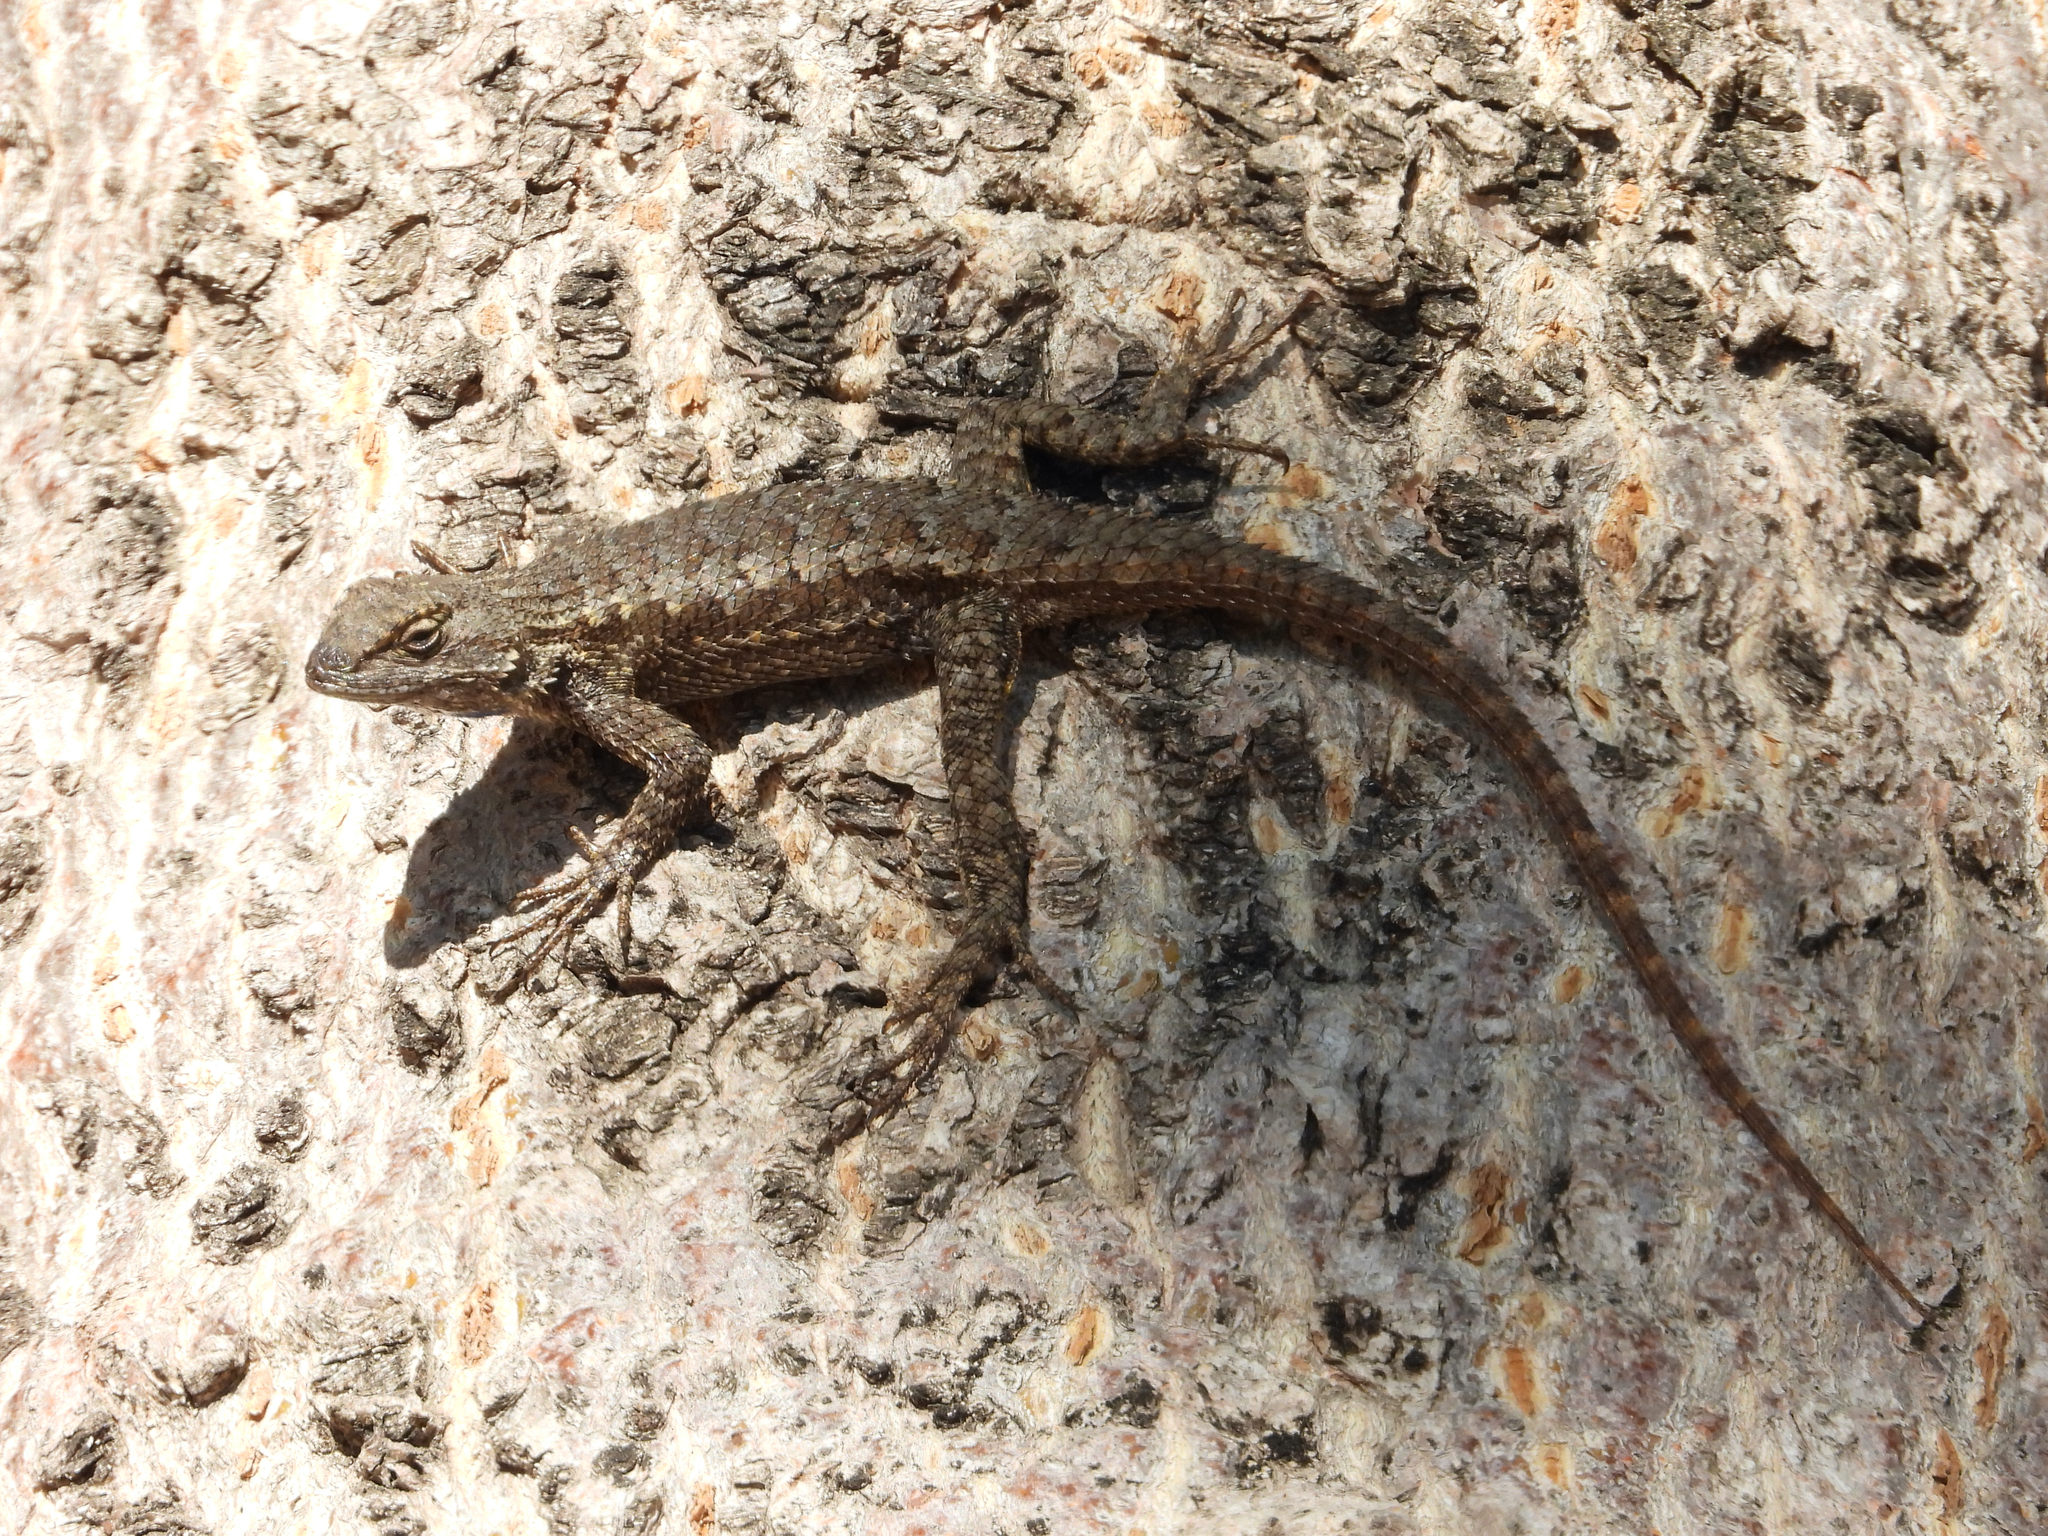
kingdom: Animalia
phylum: Chordata
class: Squamata
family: Phrynosomatidae
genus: Sceloporus
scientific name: Sceloporus occidentalis
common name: Western fence lizard
